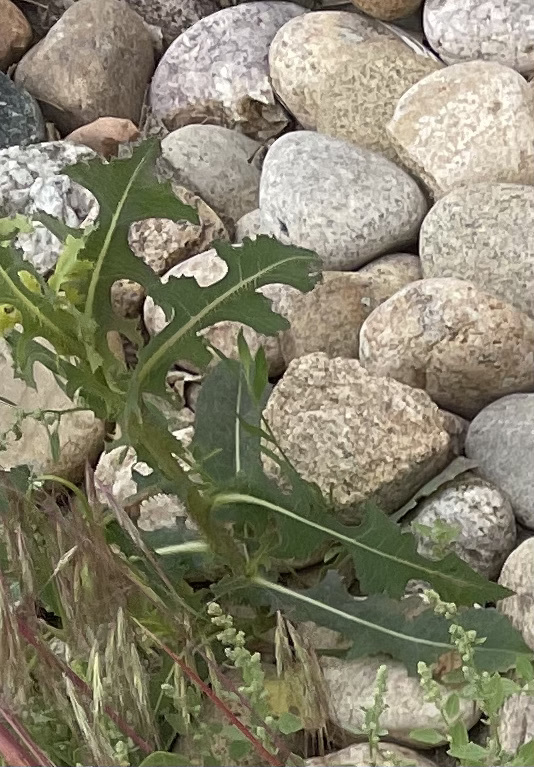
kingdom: Plantae
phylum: Tracheophyta
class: Magnoliopsida
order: Asterales
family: Asteraceae
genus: Lactuca
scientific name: Lactuca serriola
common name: Prickly lettuce
